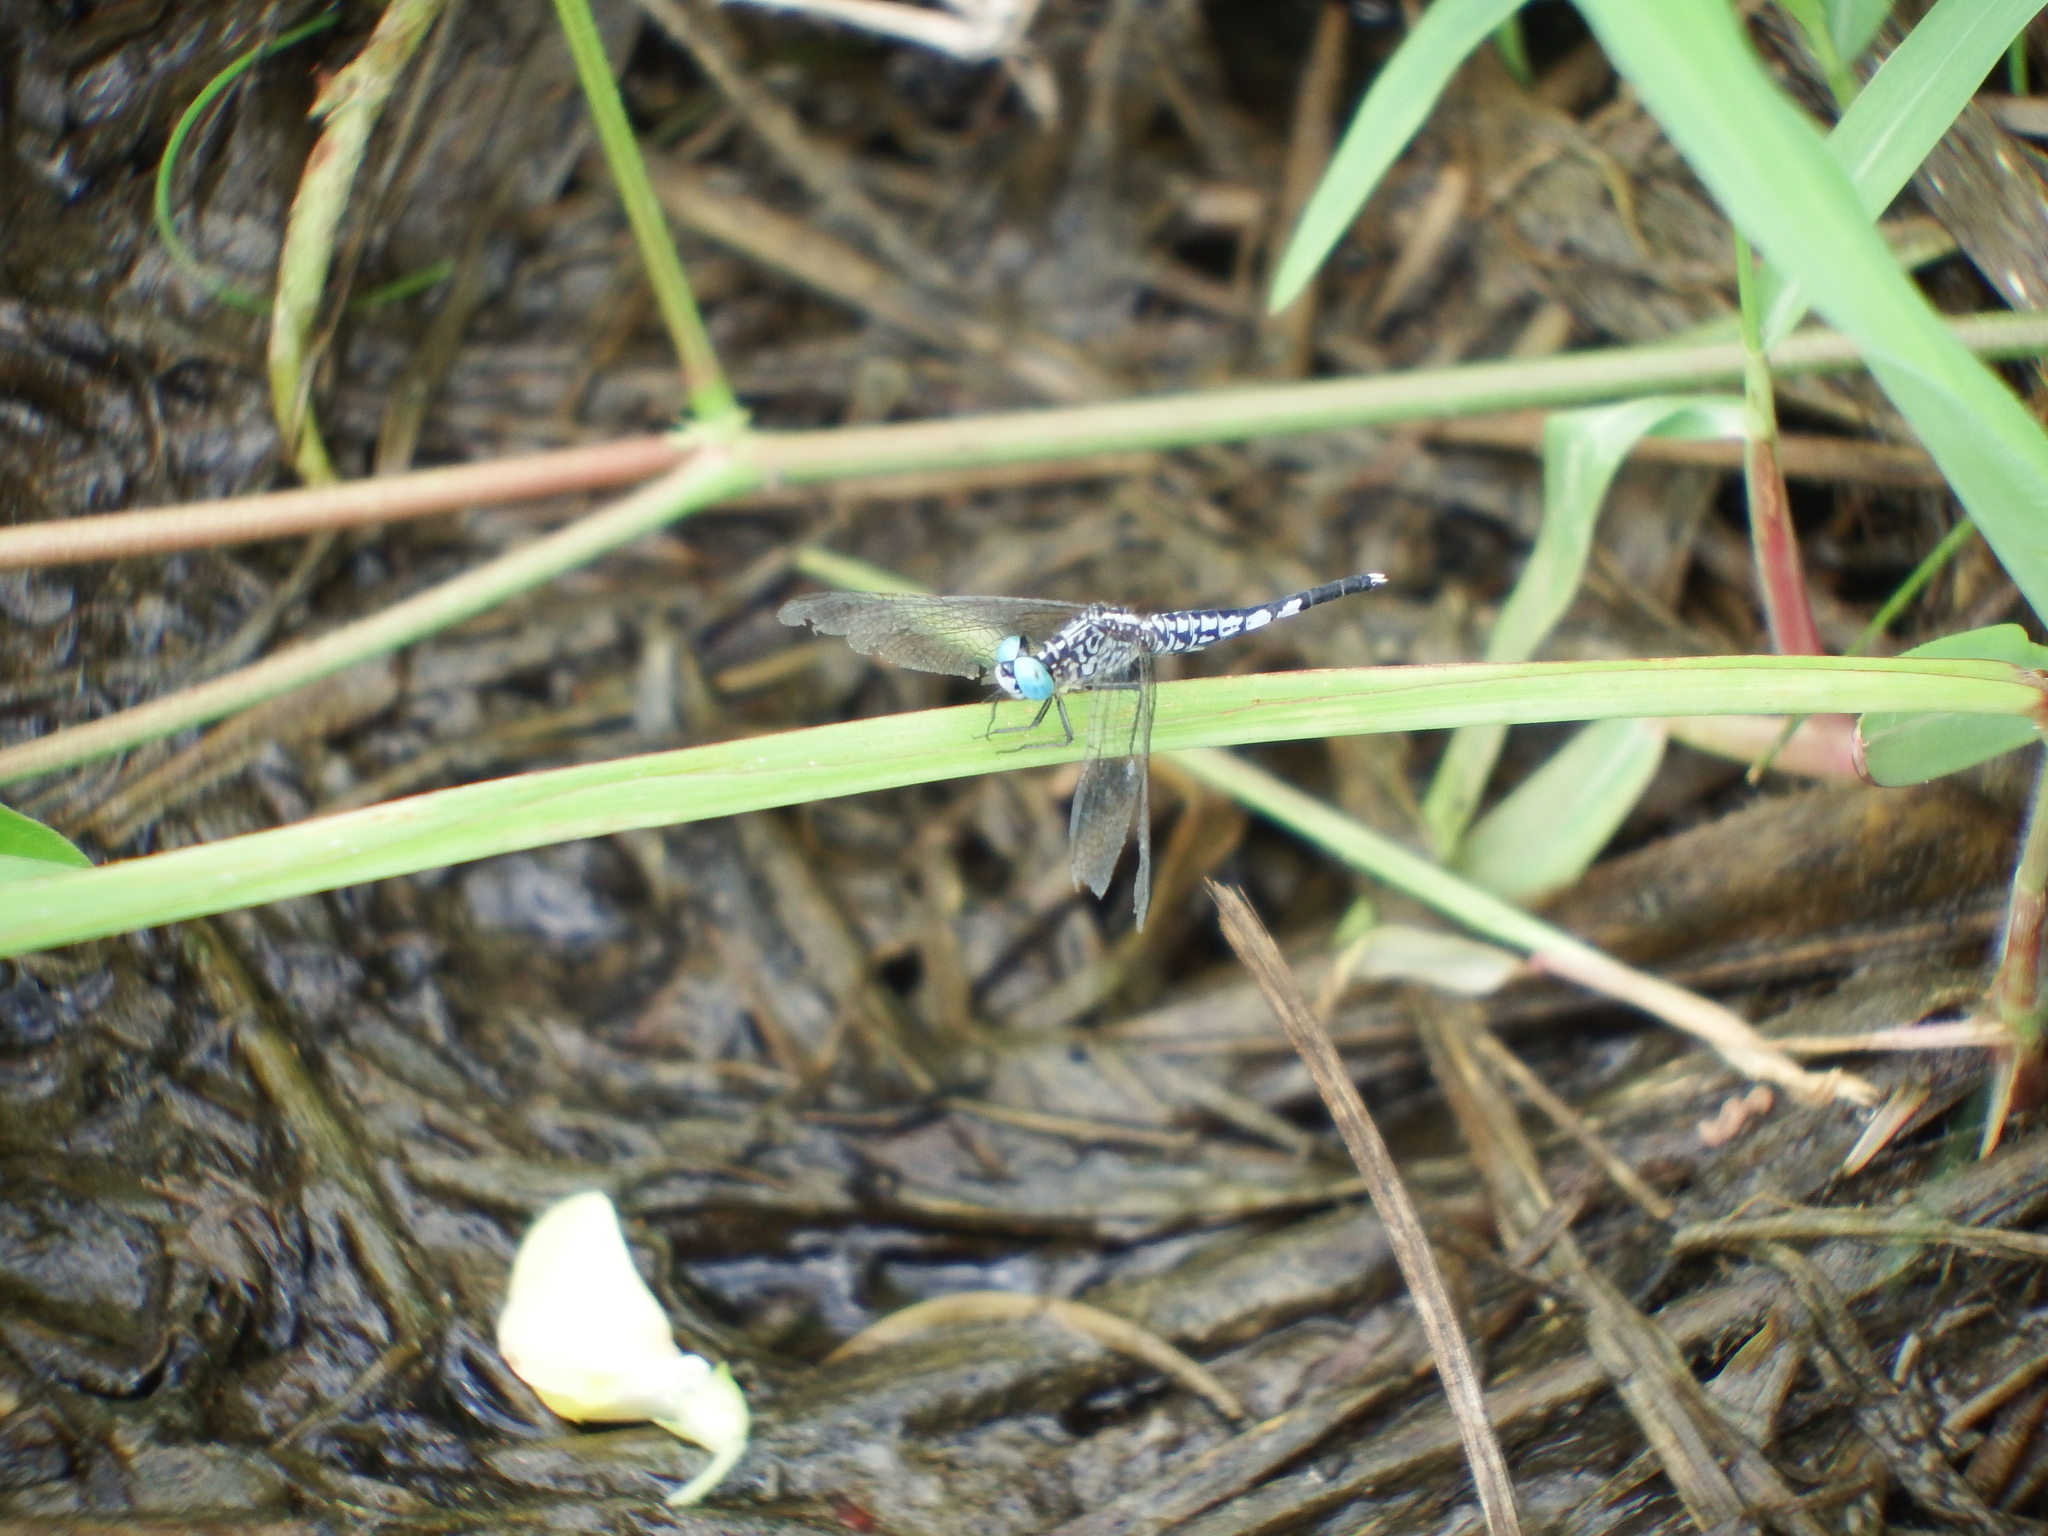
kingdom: Animalia
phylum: Arthropoda
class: Insecta
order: Odonata
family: Libellulidae
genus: Acisoma
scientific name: Acisoma panorpoides
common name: Asian pintail
